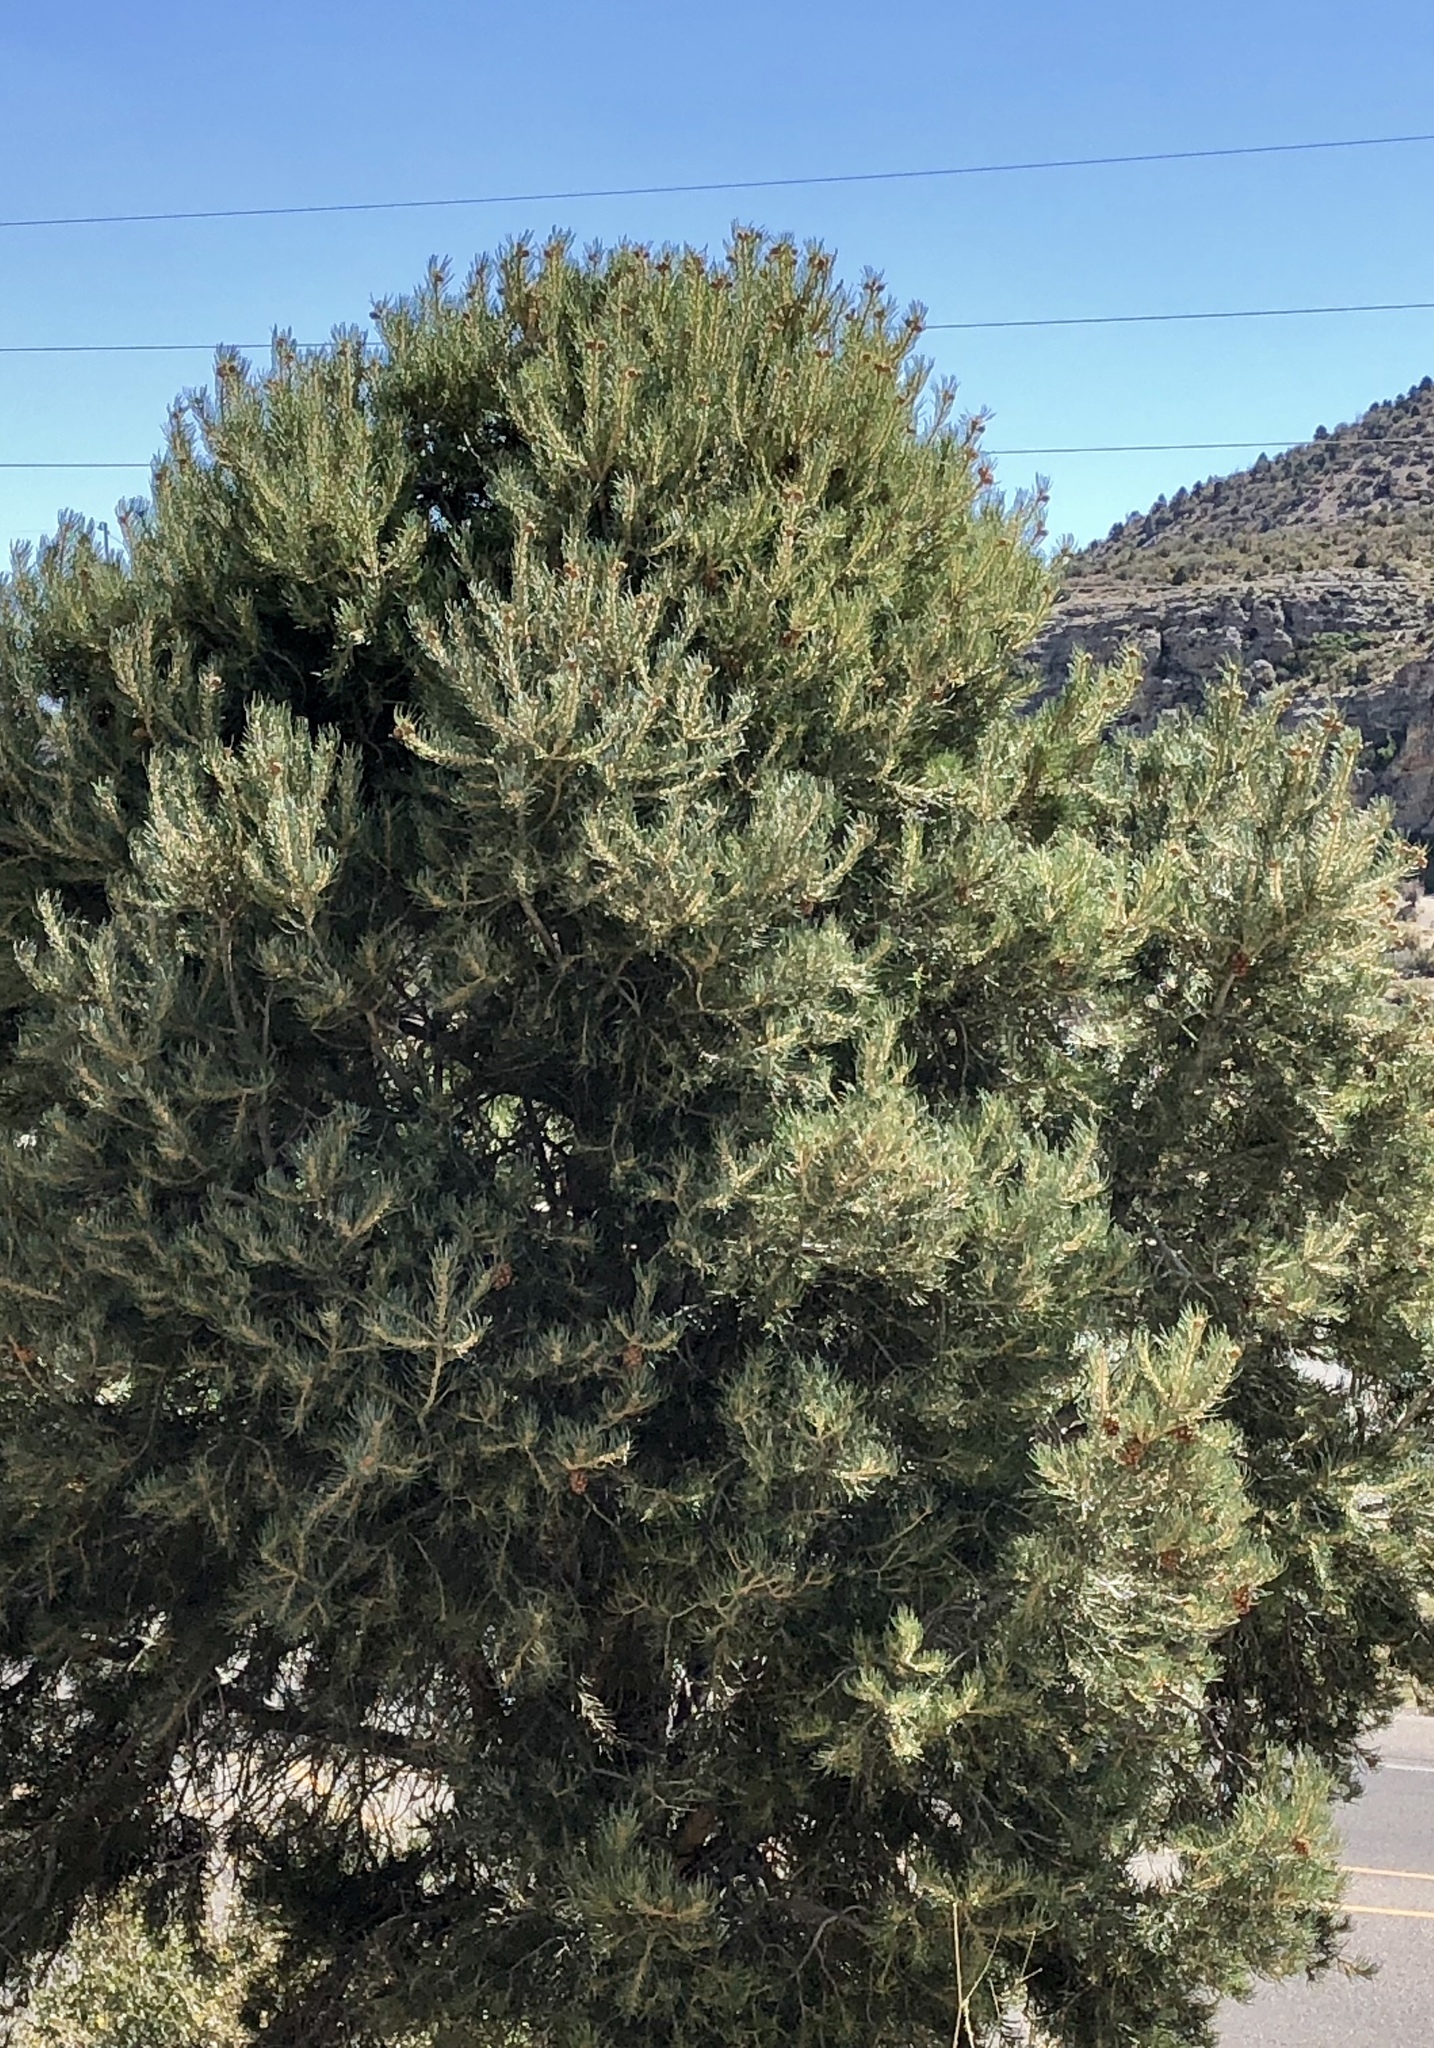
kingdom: Plantae
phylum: Tracheophyta
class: Pinopsida
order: Pinales
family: Pinaceae
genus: Pinus
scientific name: Pinus monophylla
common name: One-leaved nut pine
